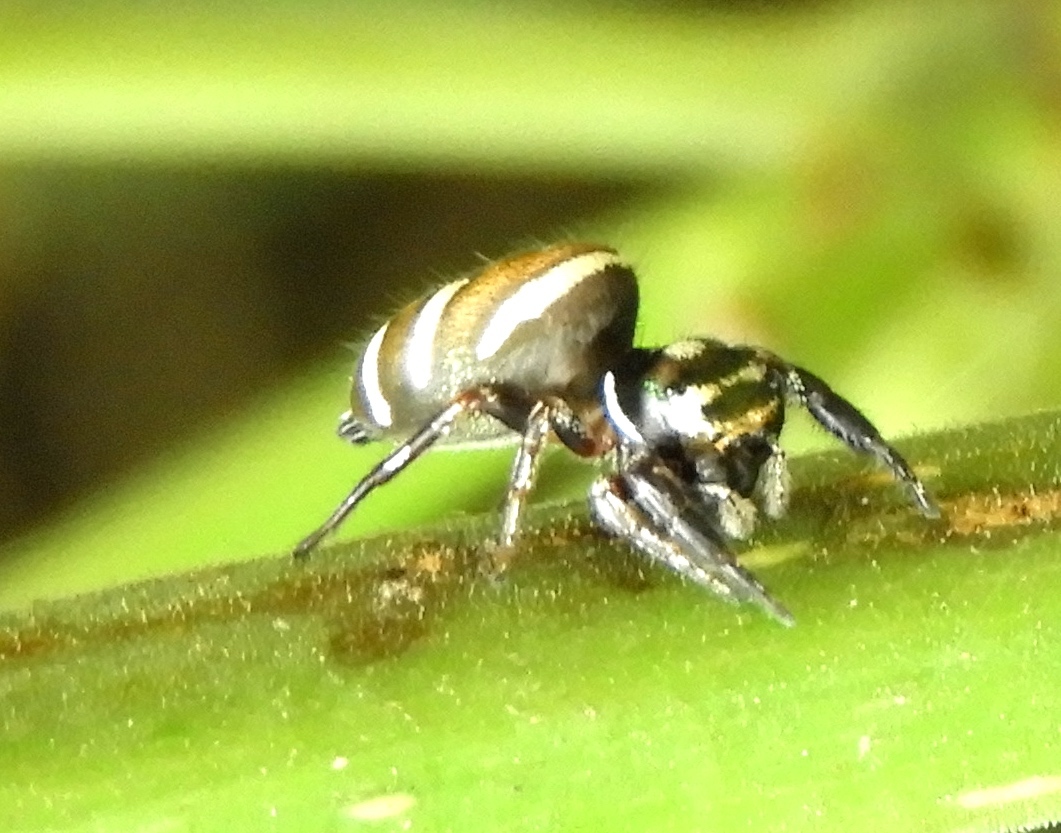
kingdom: Animalia
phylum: Arthropoda
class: Arachnida
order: Araneae
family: Salticidae
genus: Sassacus
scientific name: Sassacus
